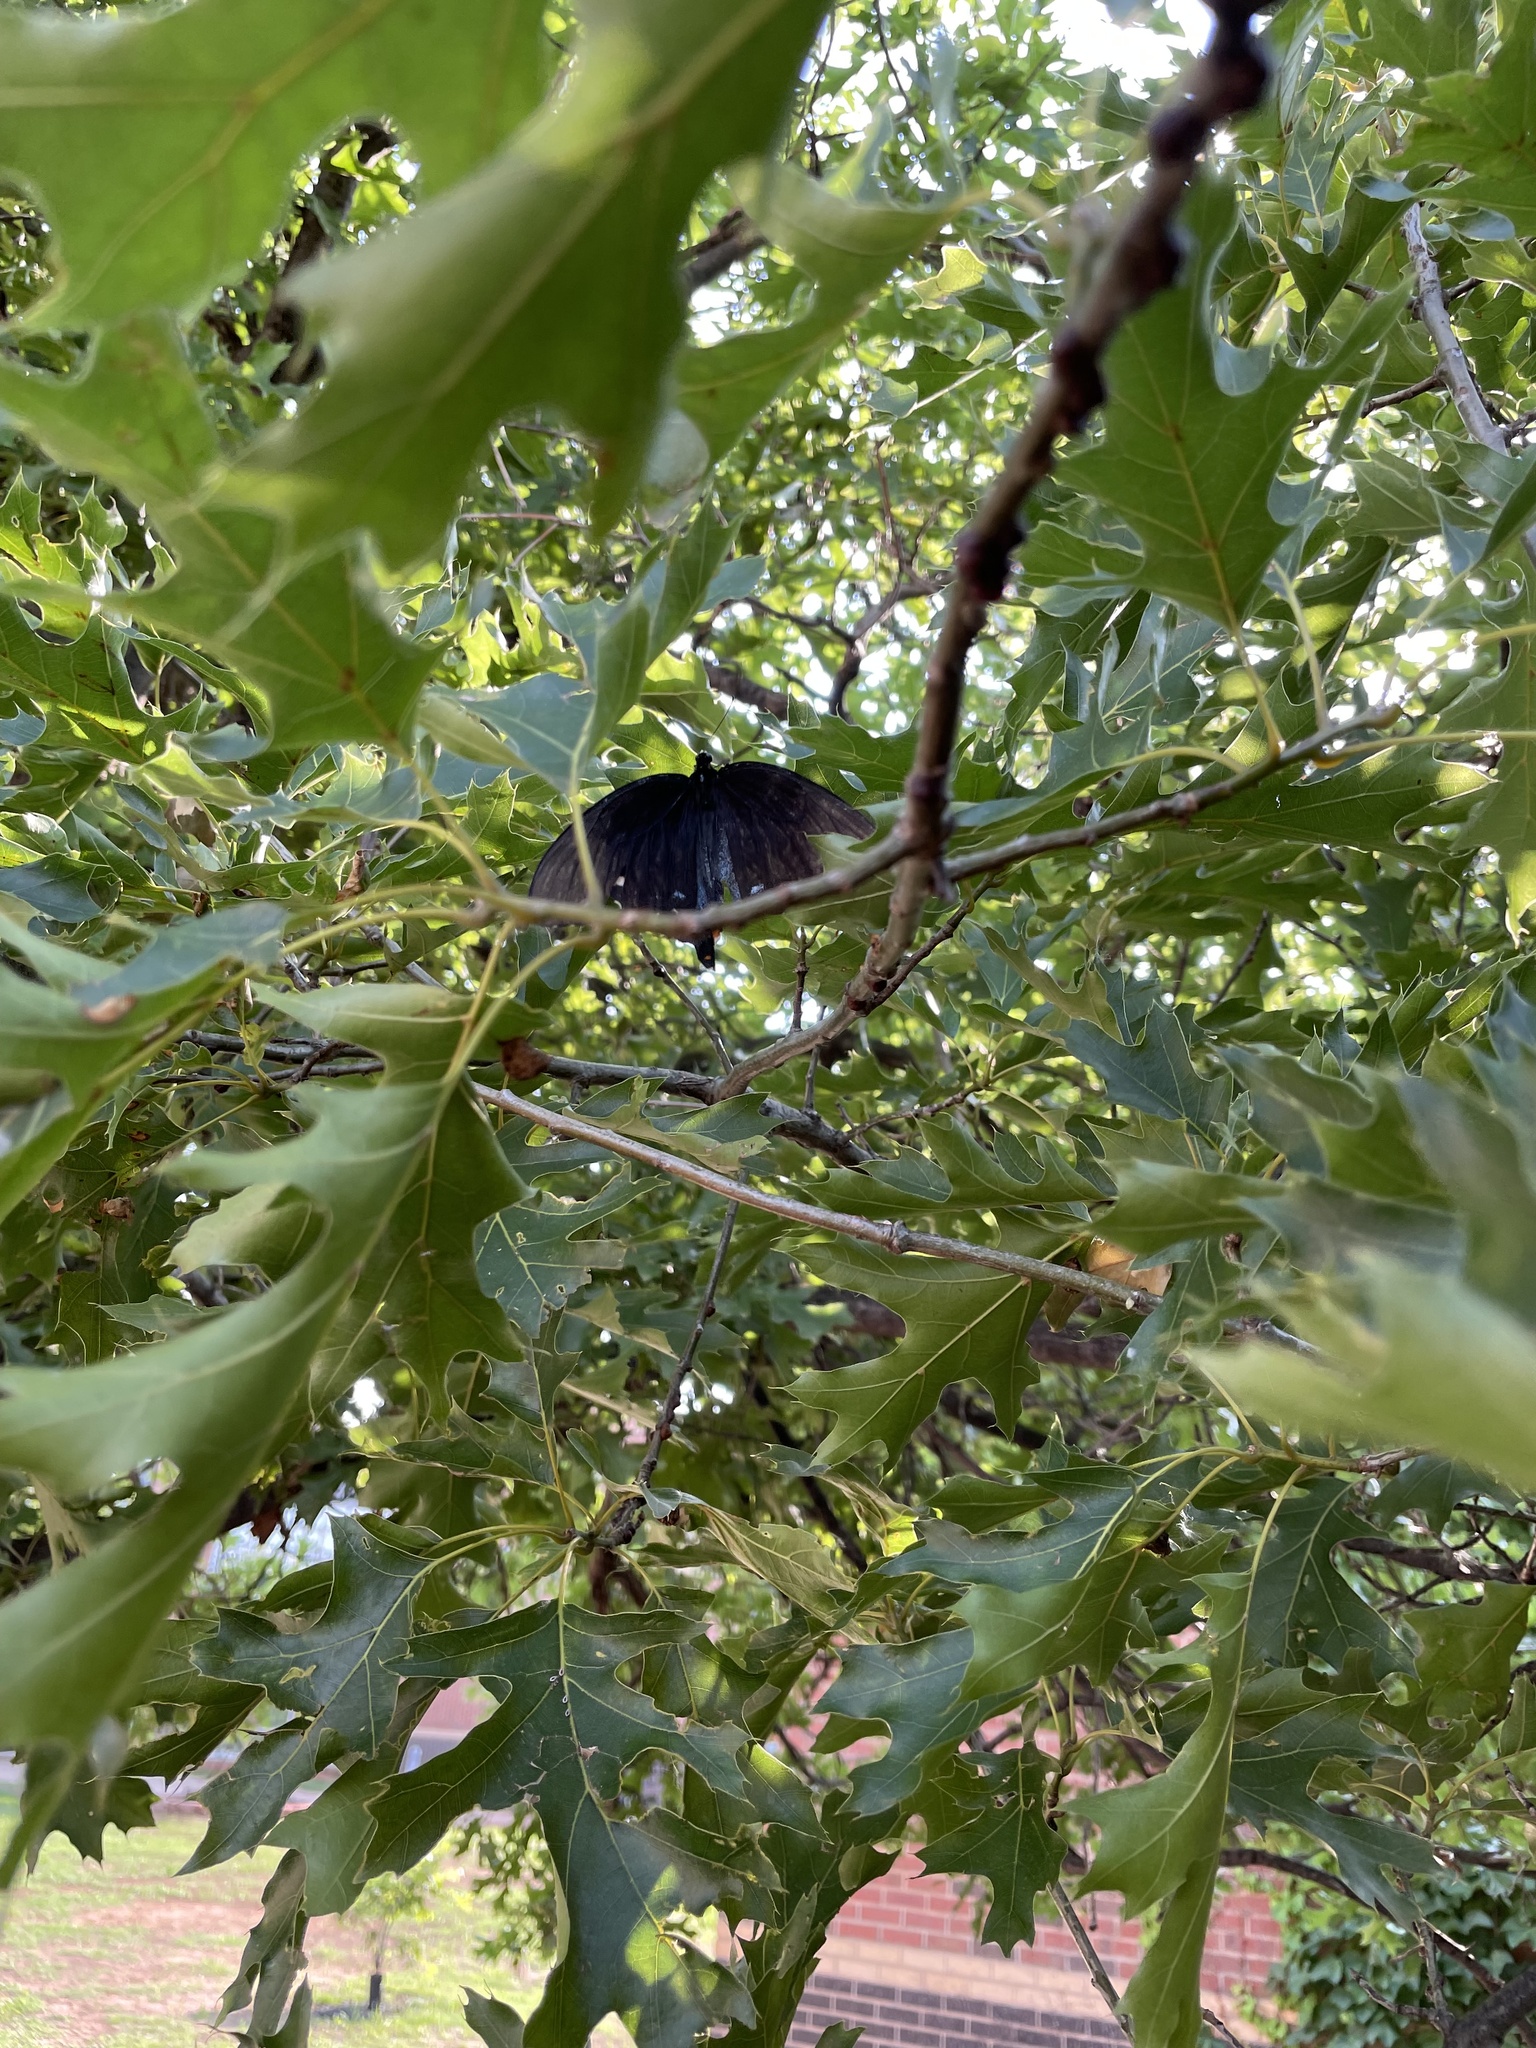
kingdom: Animalia
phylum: Arthropoda
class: Insecta
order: Lepidoptera
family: Papilionidae
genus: Battus
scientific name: Battus philenor
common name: Pipevine swallowtail
